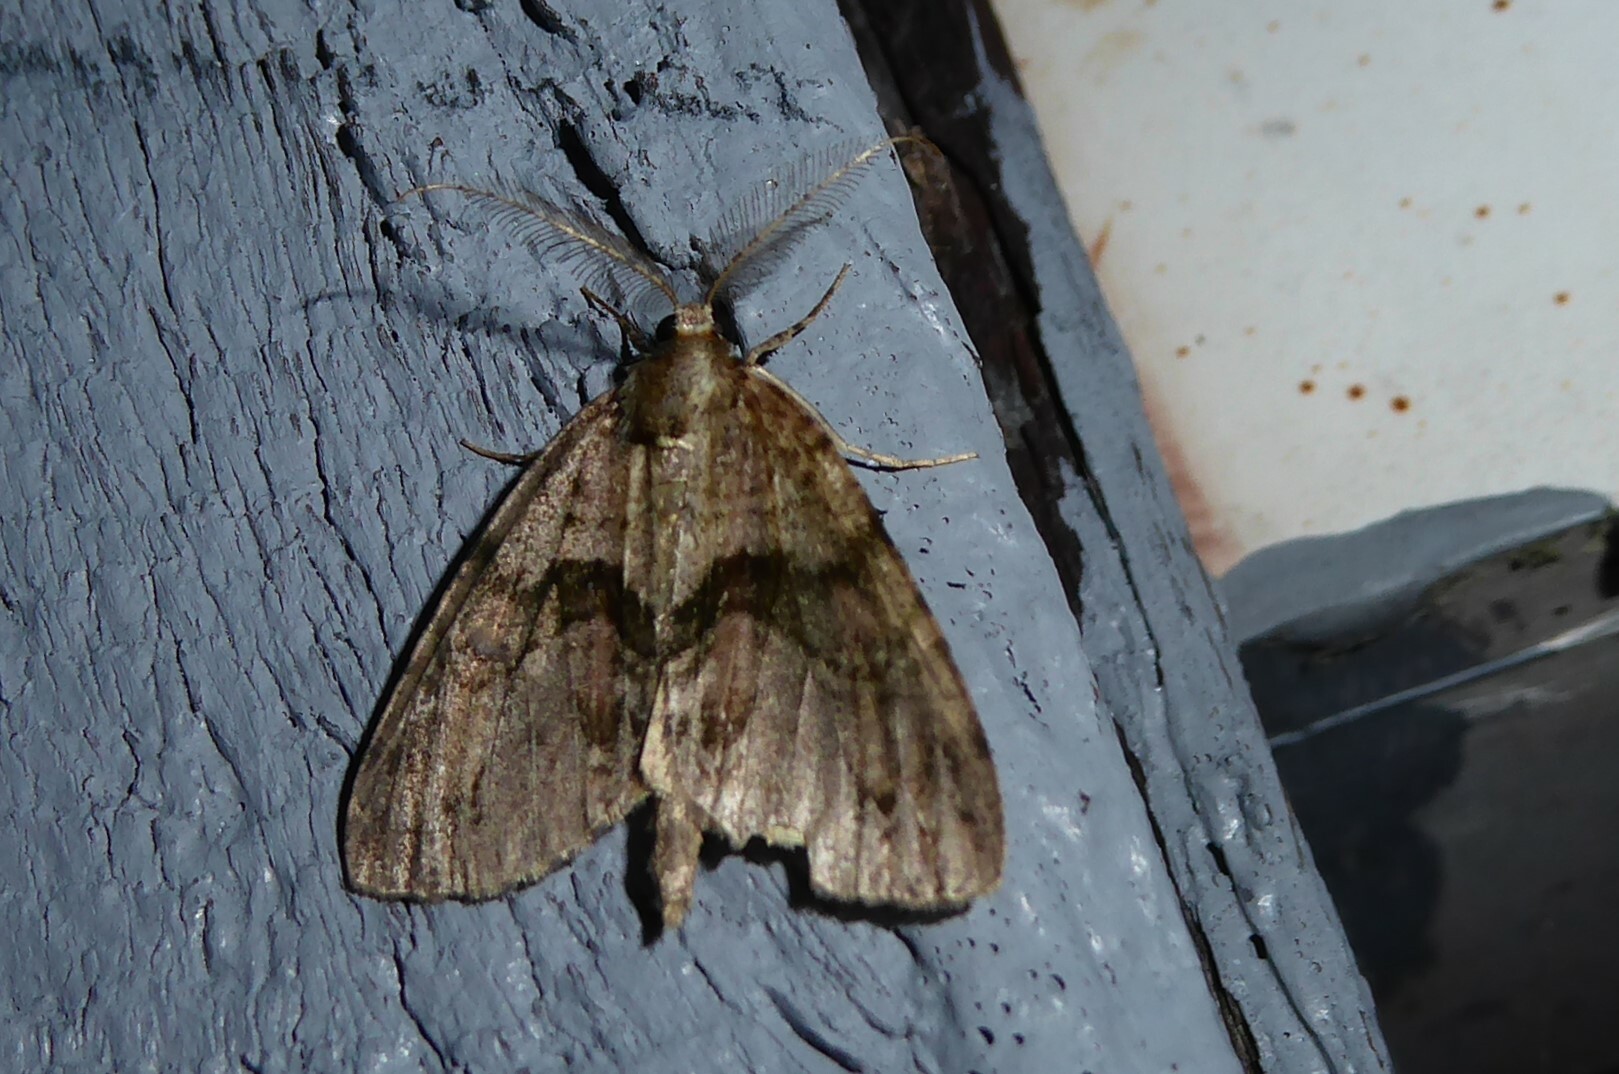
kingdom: Animalia
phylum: Arthropoda
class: Insecta
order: Lepidoptera
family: Geometridae
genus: Pseudocoremia
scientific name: Pseudocoremia suavis
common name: Common forest looper
